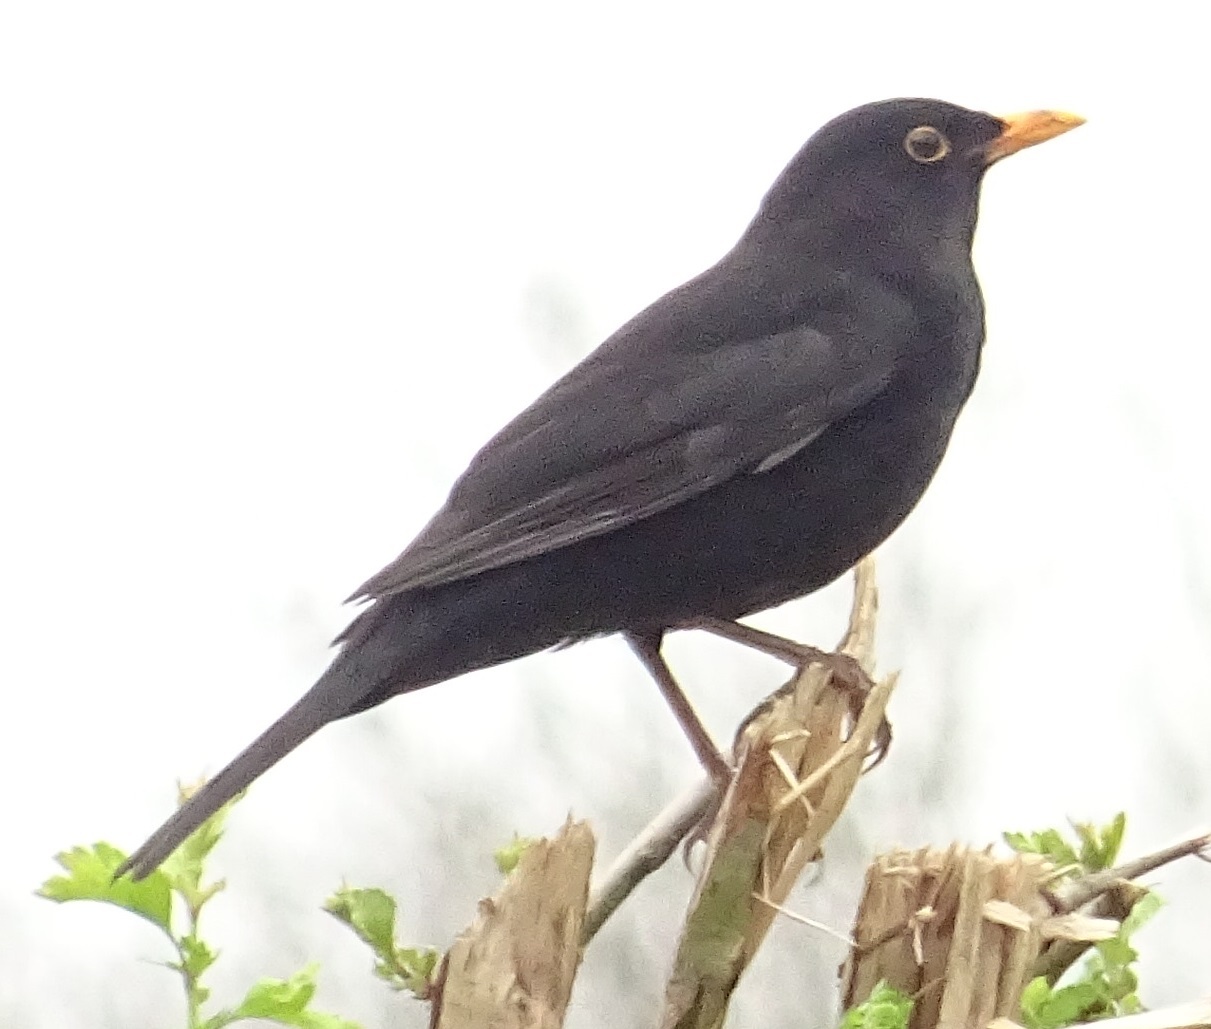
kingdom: Animalia
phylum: Chordata
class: Aves
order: Passeriformes
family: Turdidae
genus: Turdus
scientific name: Turdus merula
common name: Common blackbird
